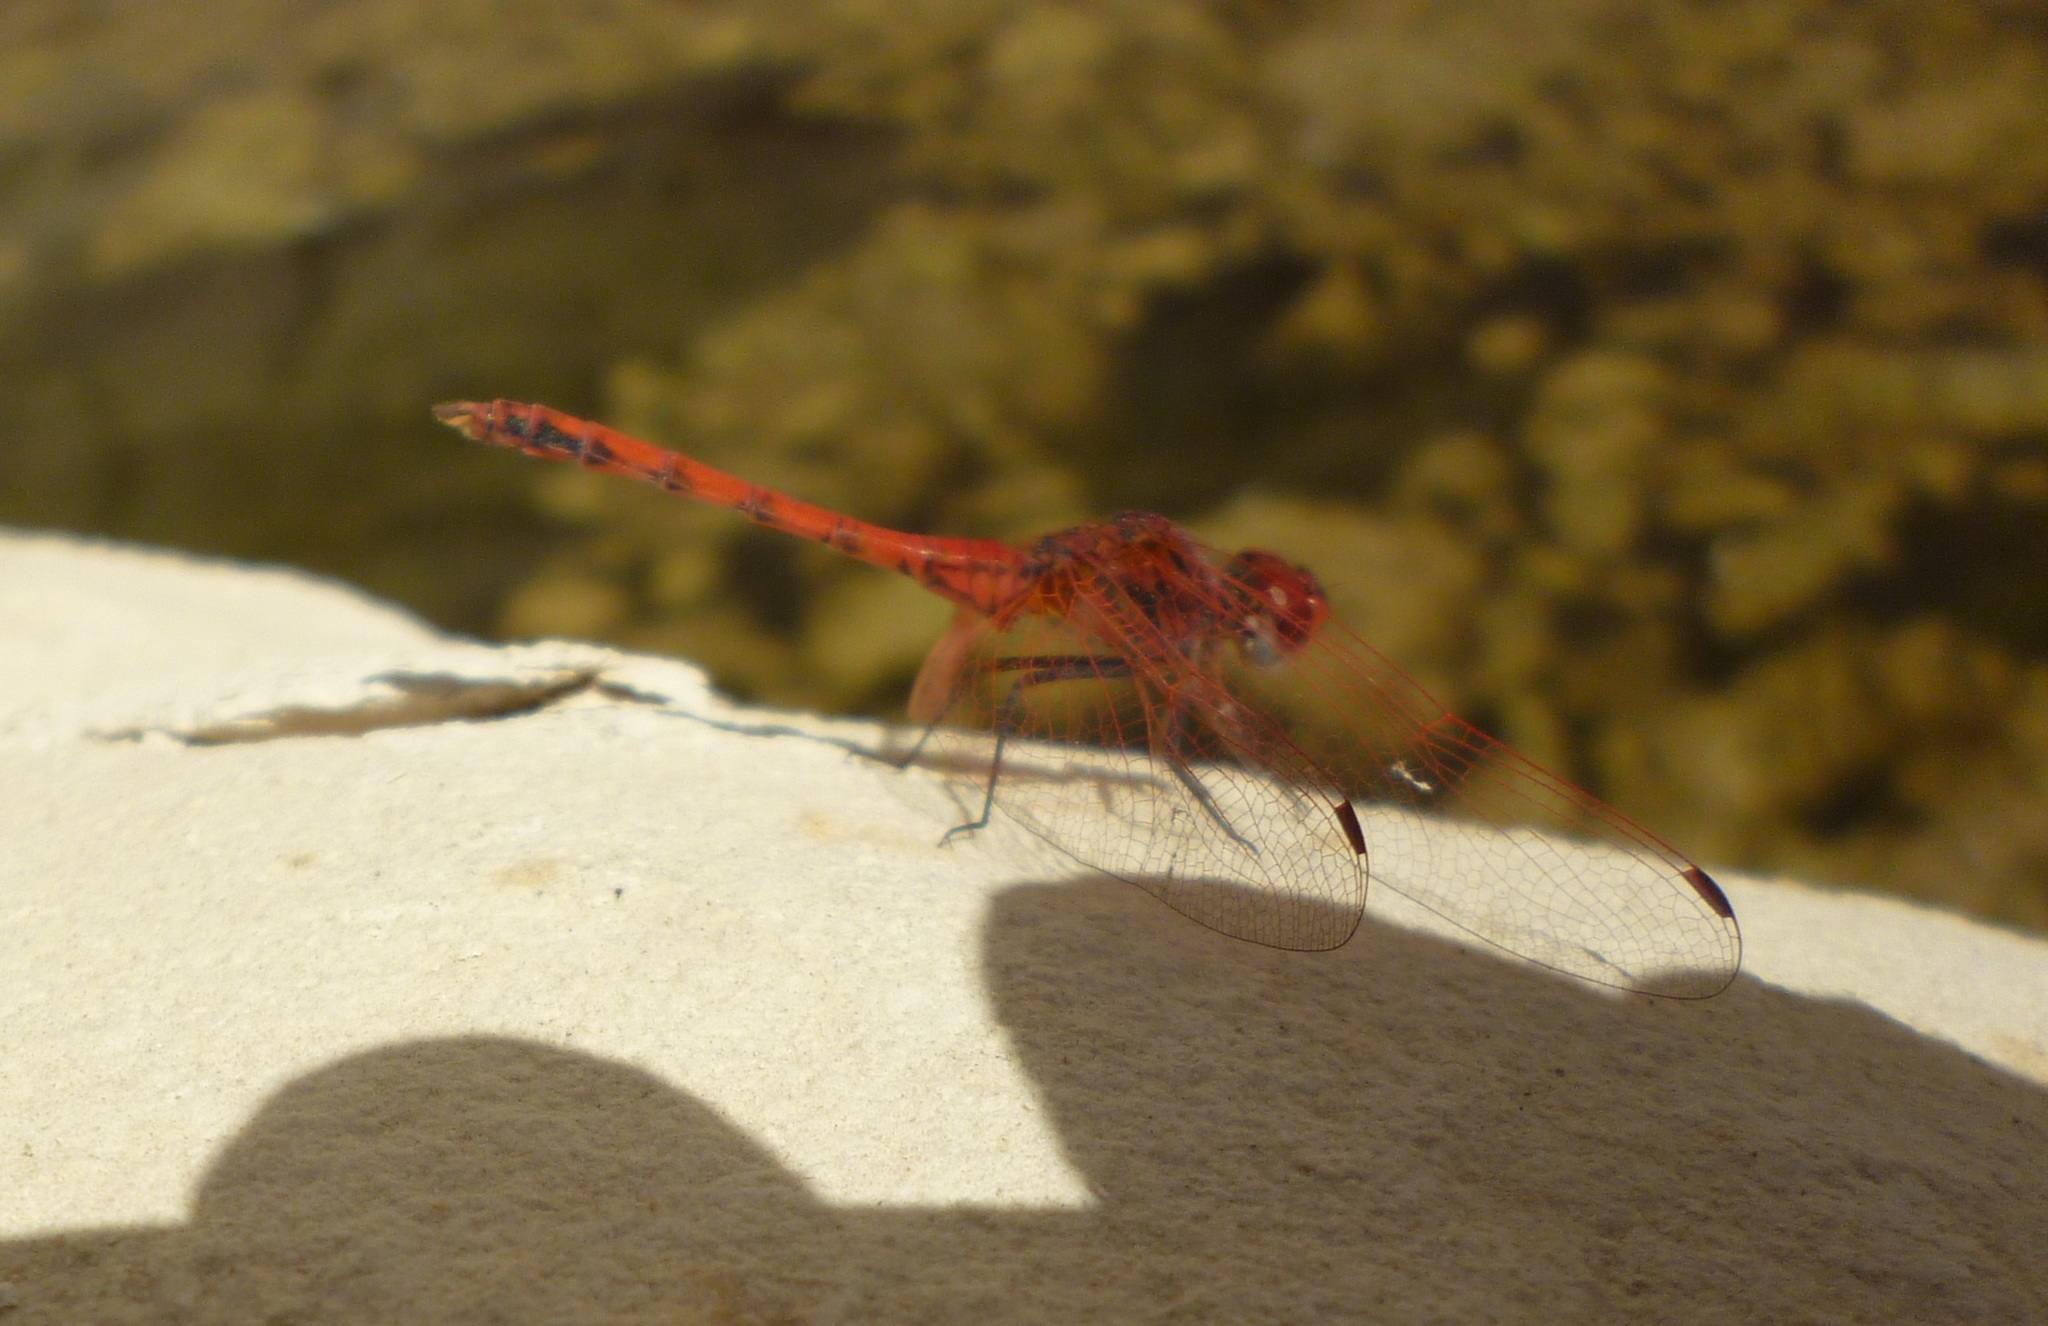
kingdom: Animalia
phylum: Arthropoda
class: Insecta
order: Odonata
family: Libellulidae
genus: Trithemis
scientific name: Trithemis arteriosa
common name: Red-veined dropwing
